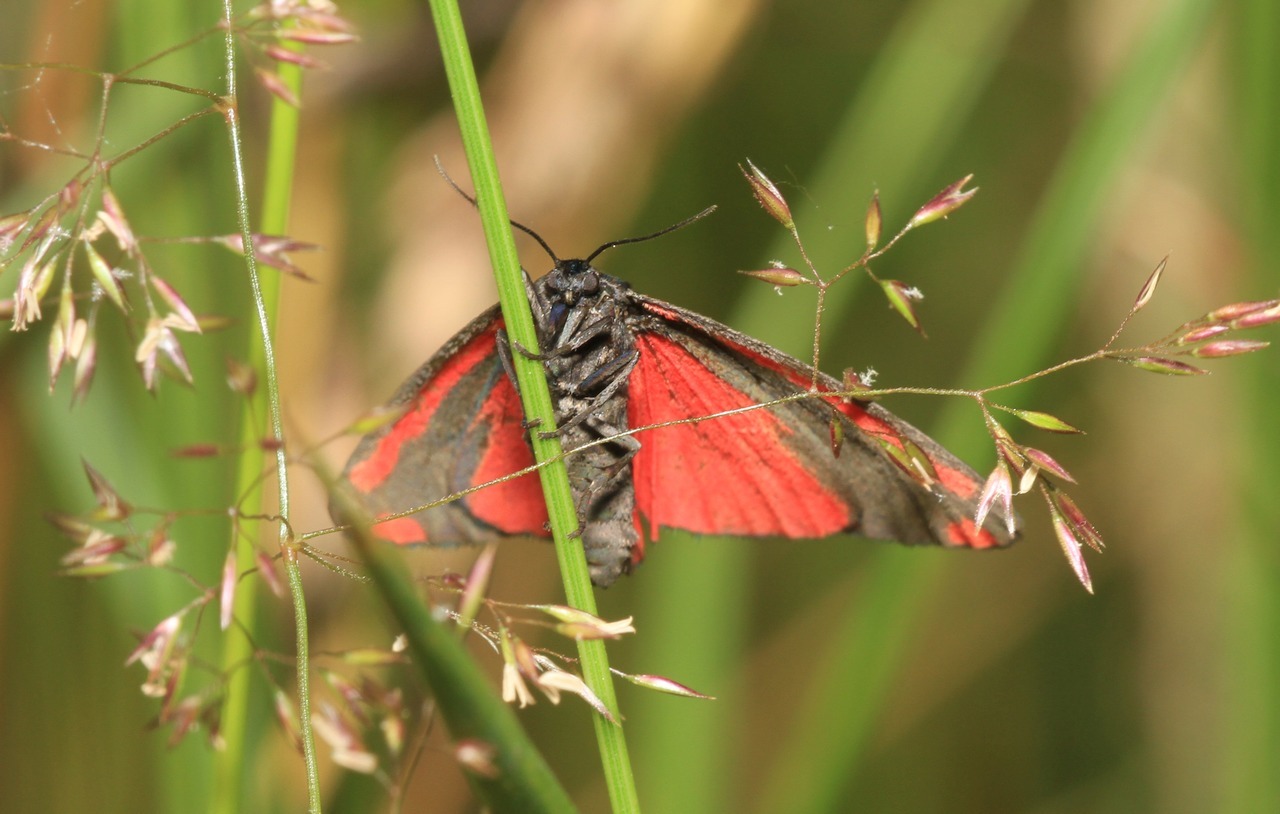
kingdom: Animalia
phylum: Arthropoda
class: Insecta
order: Lepidoptera
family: Erebidae
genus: Tyria
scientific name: Tyria jacobaeae
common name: Cinnabar
